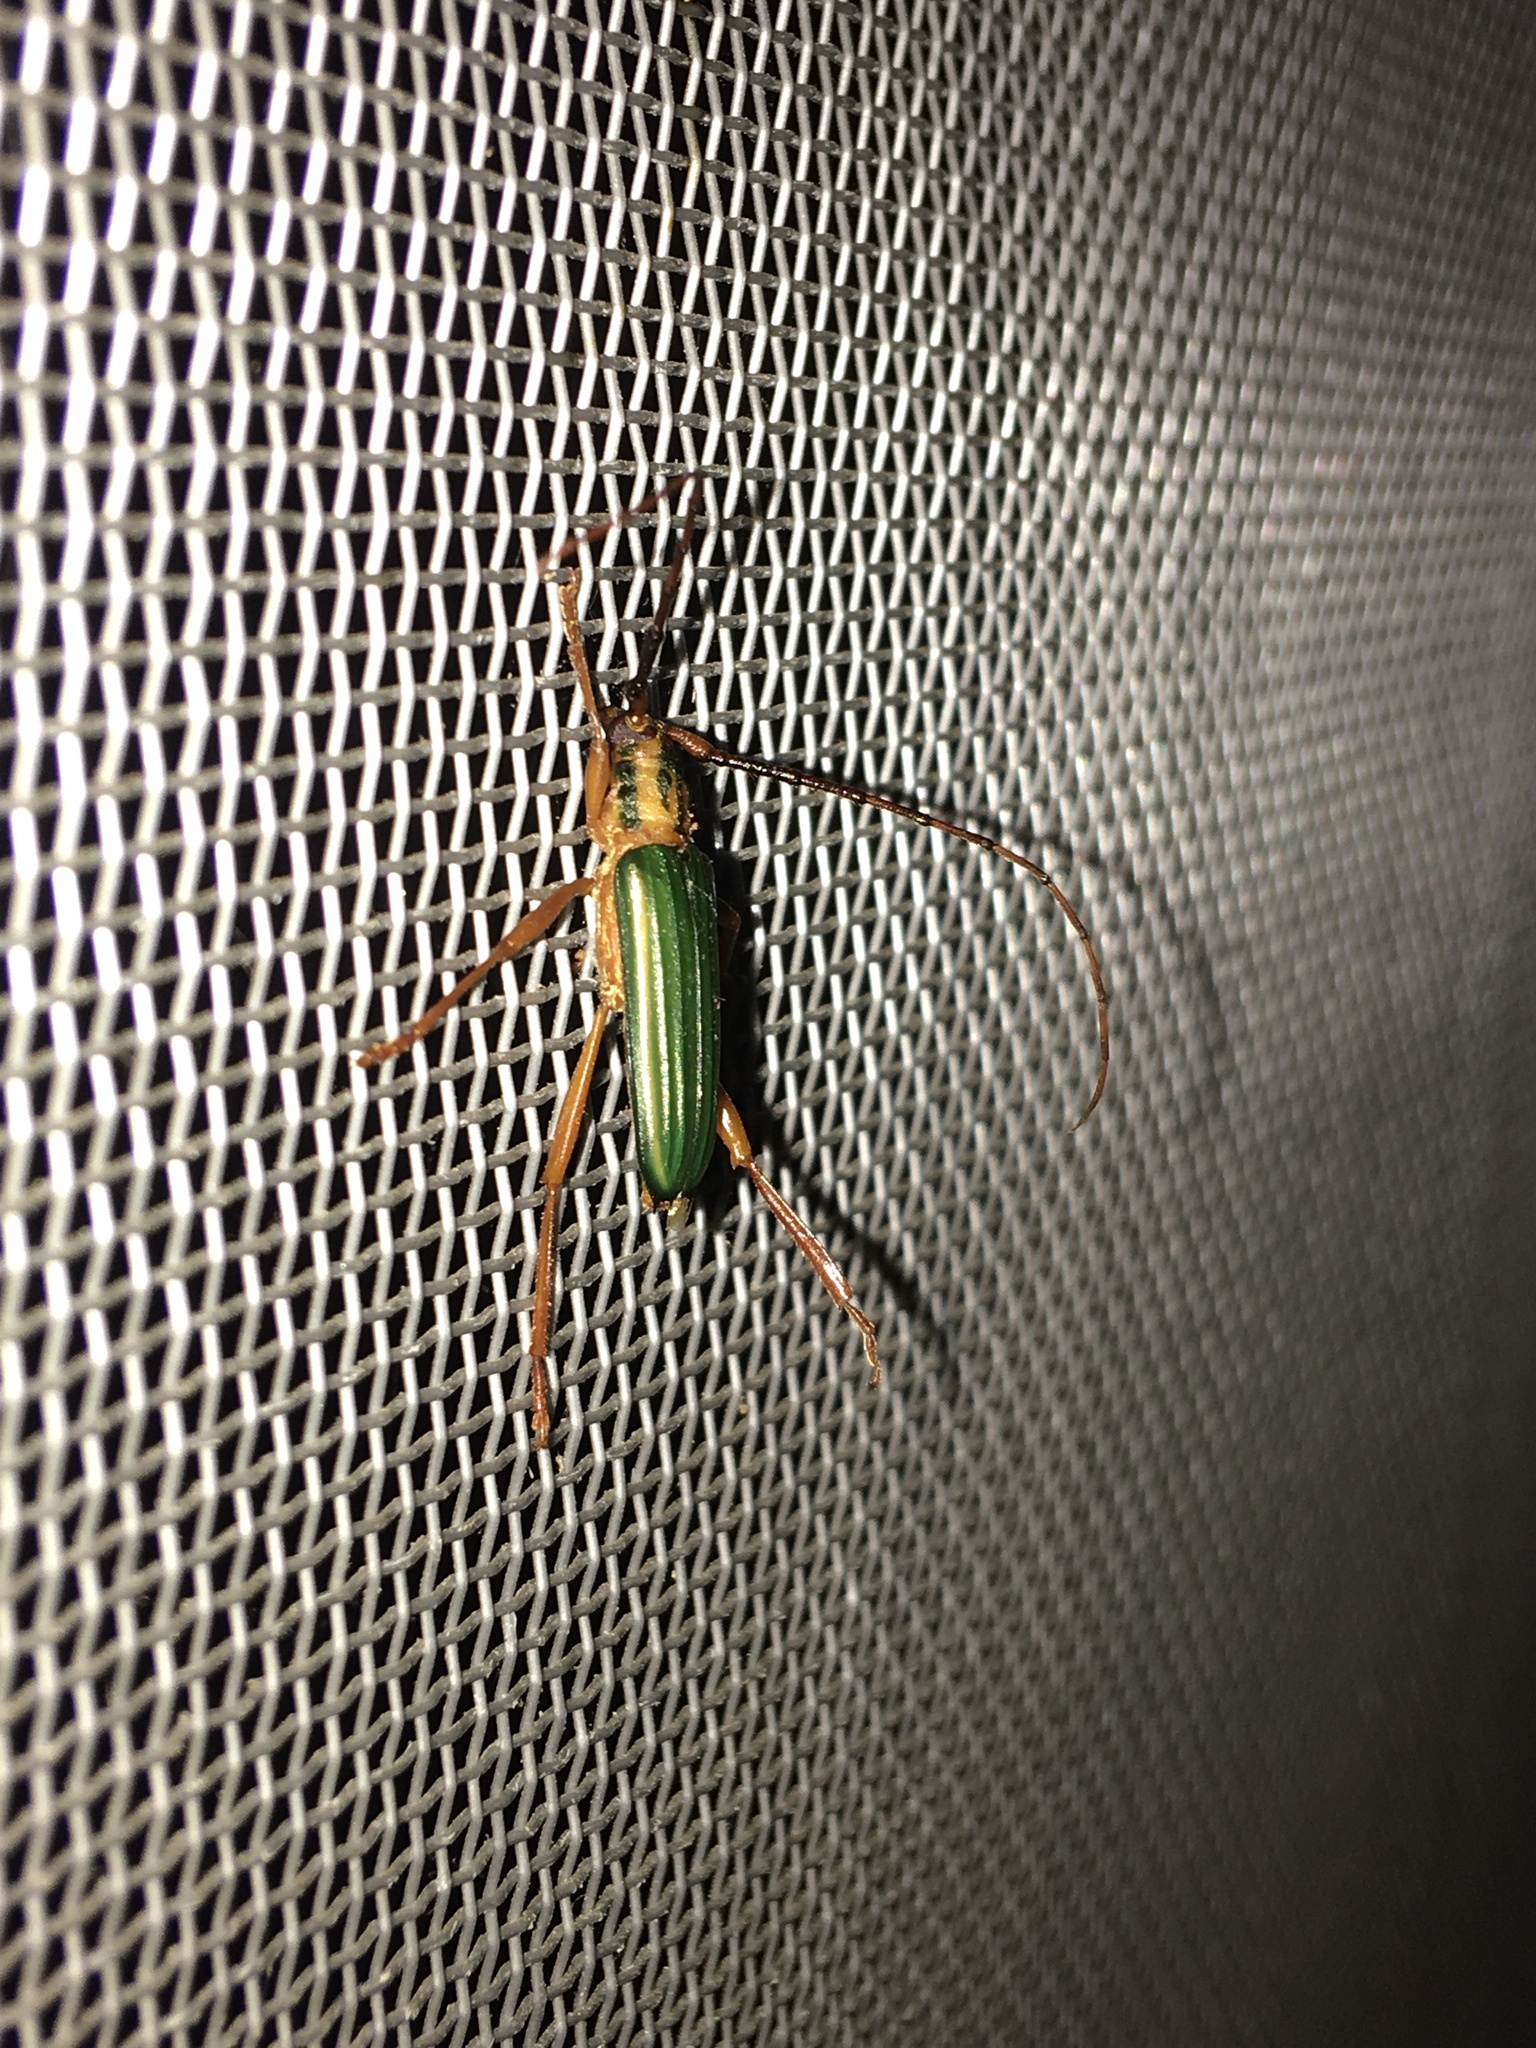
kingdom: Animalia
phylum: Arthropoda
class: Insecta
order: Coleoptera
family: Cerambycidae
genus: Chlorida
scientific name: Chlorida festiva
